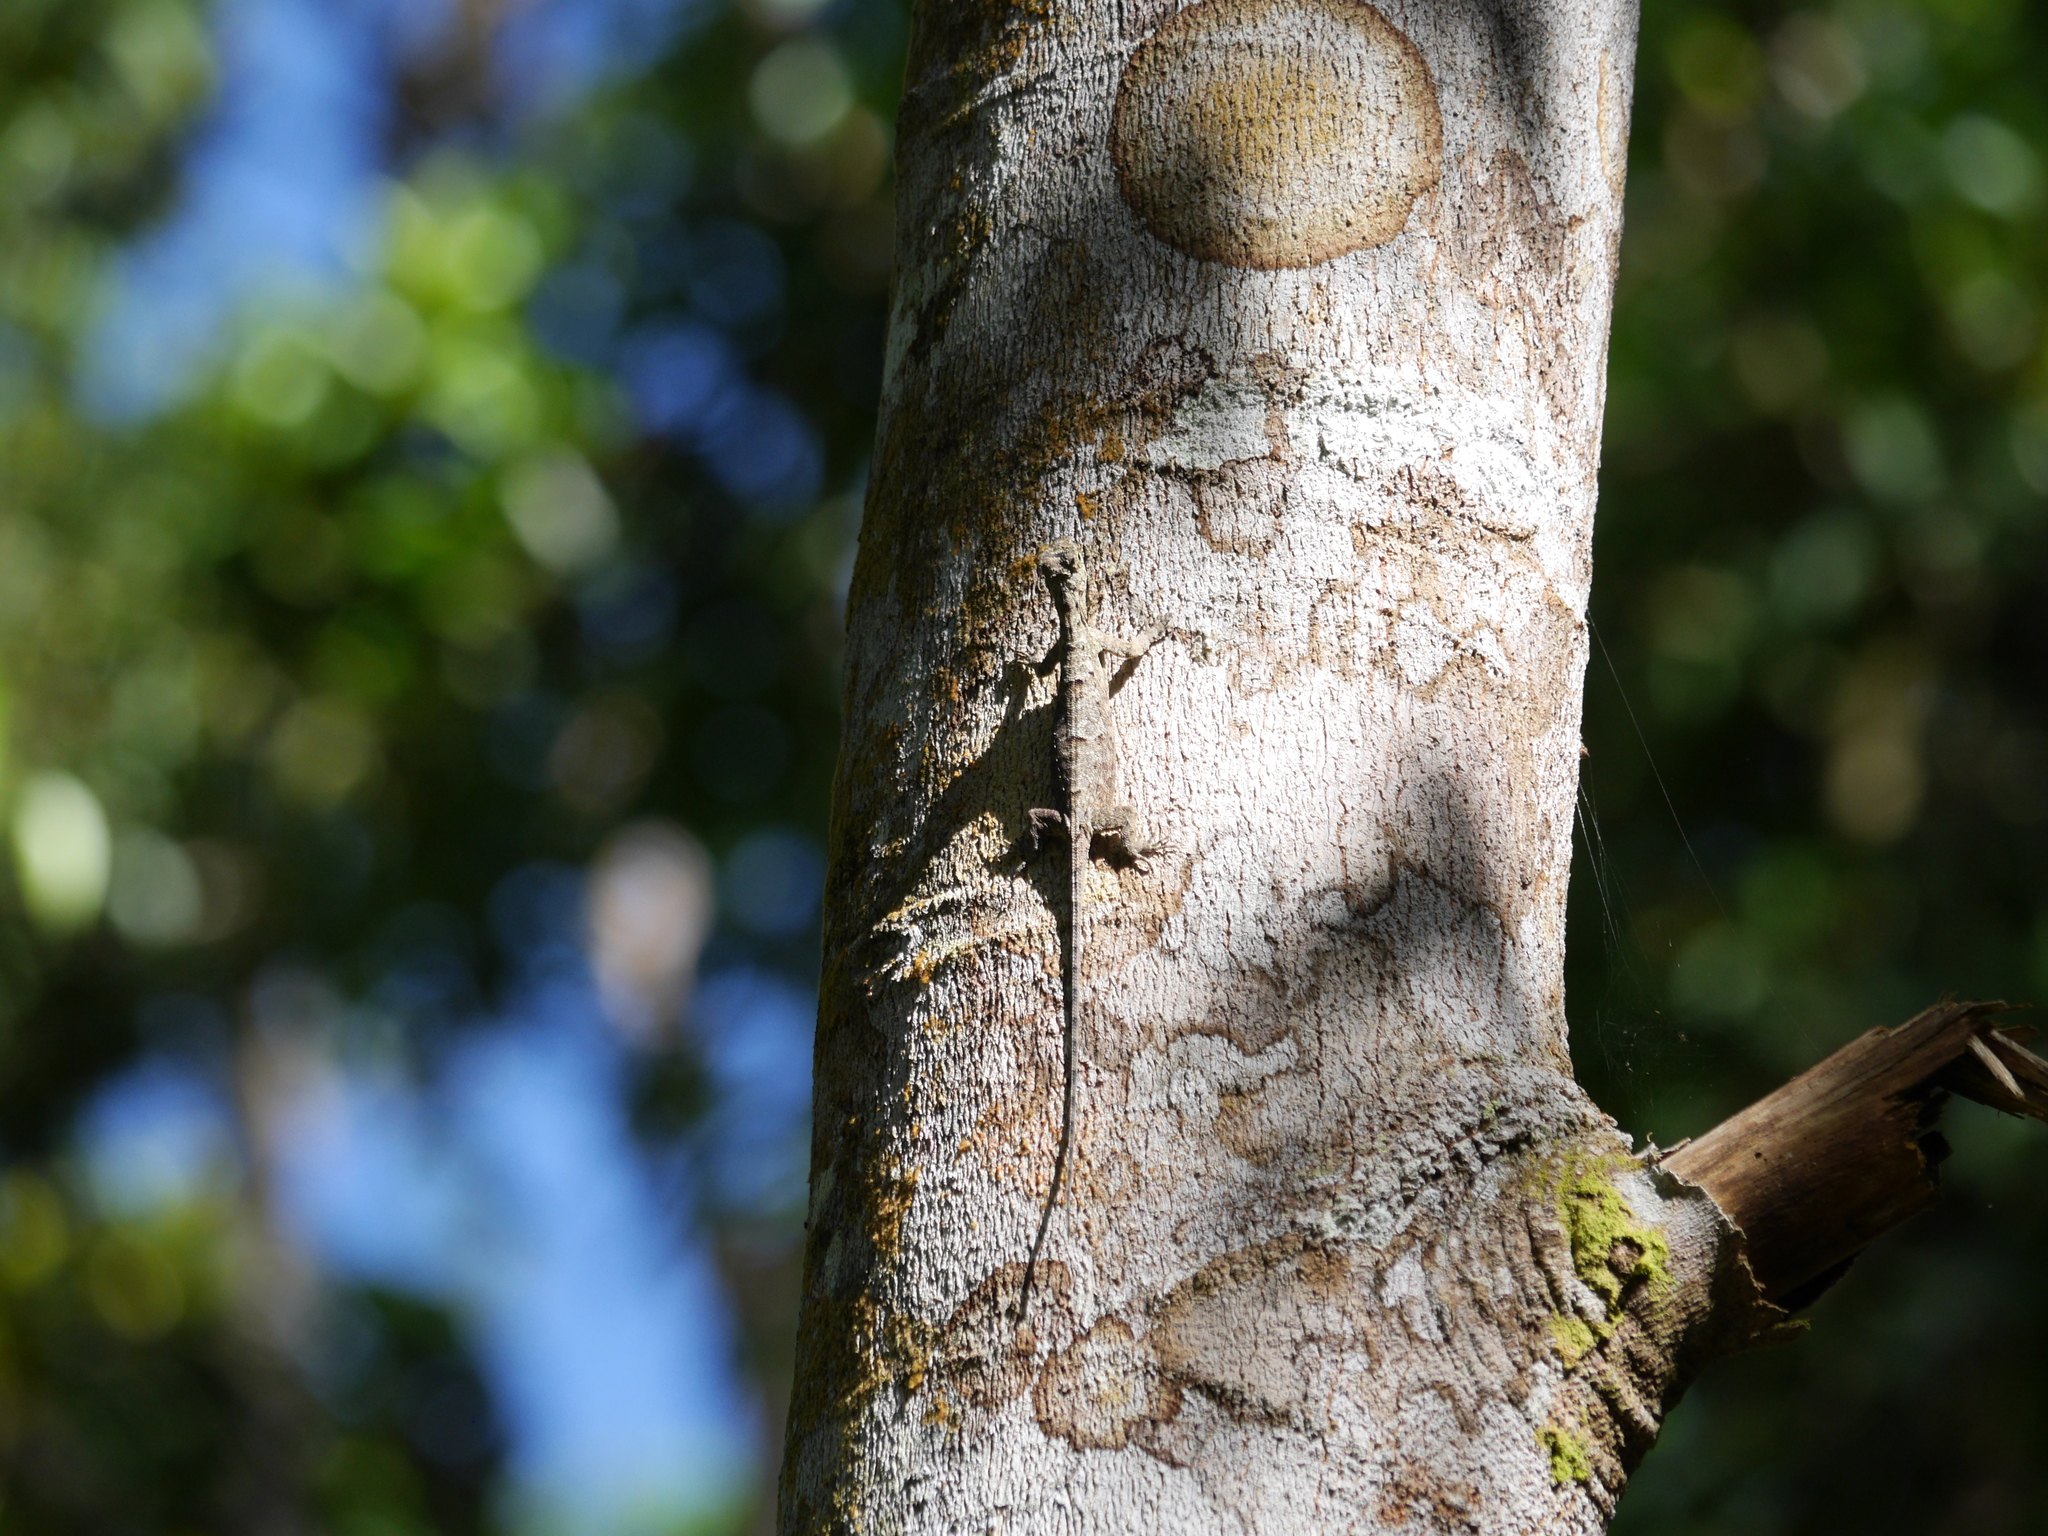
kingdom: Animalia
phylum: Chordata
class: Squamata
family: Agamidae
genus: Draco
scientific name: Draco sumatranus
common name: Common gliding lizard
